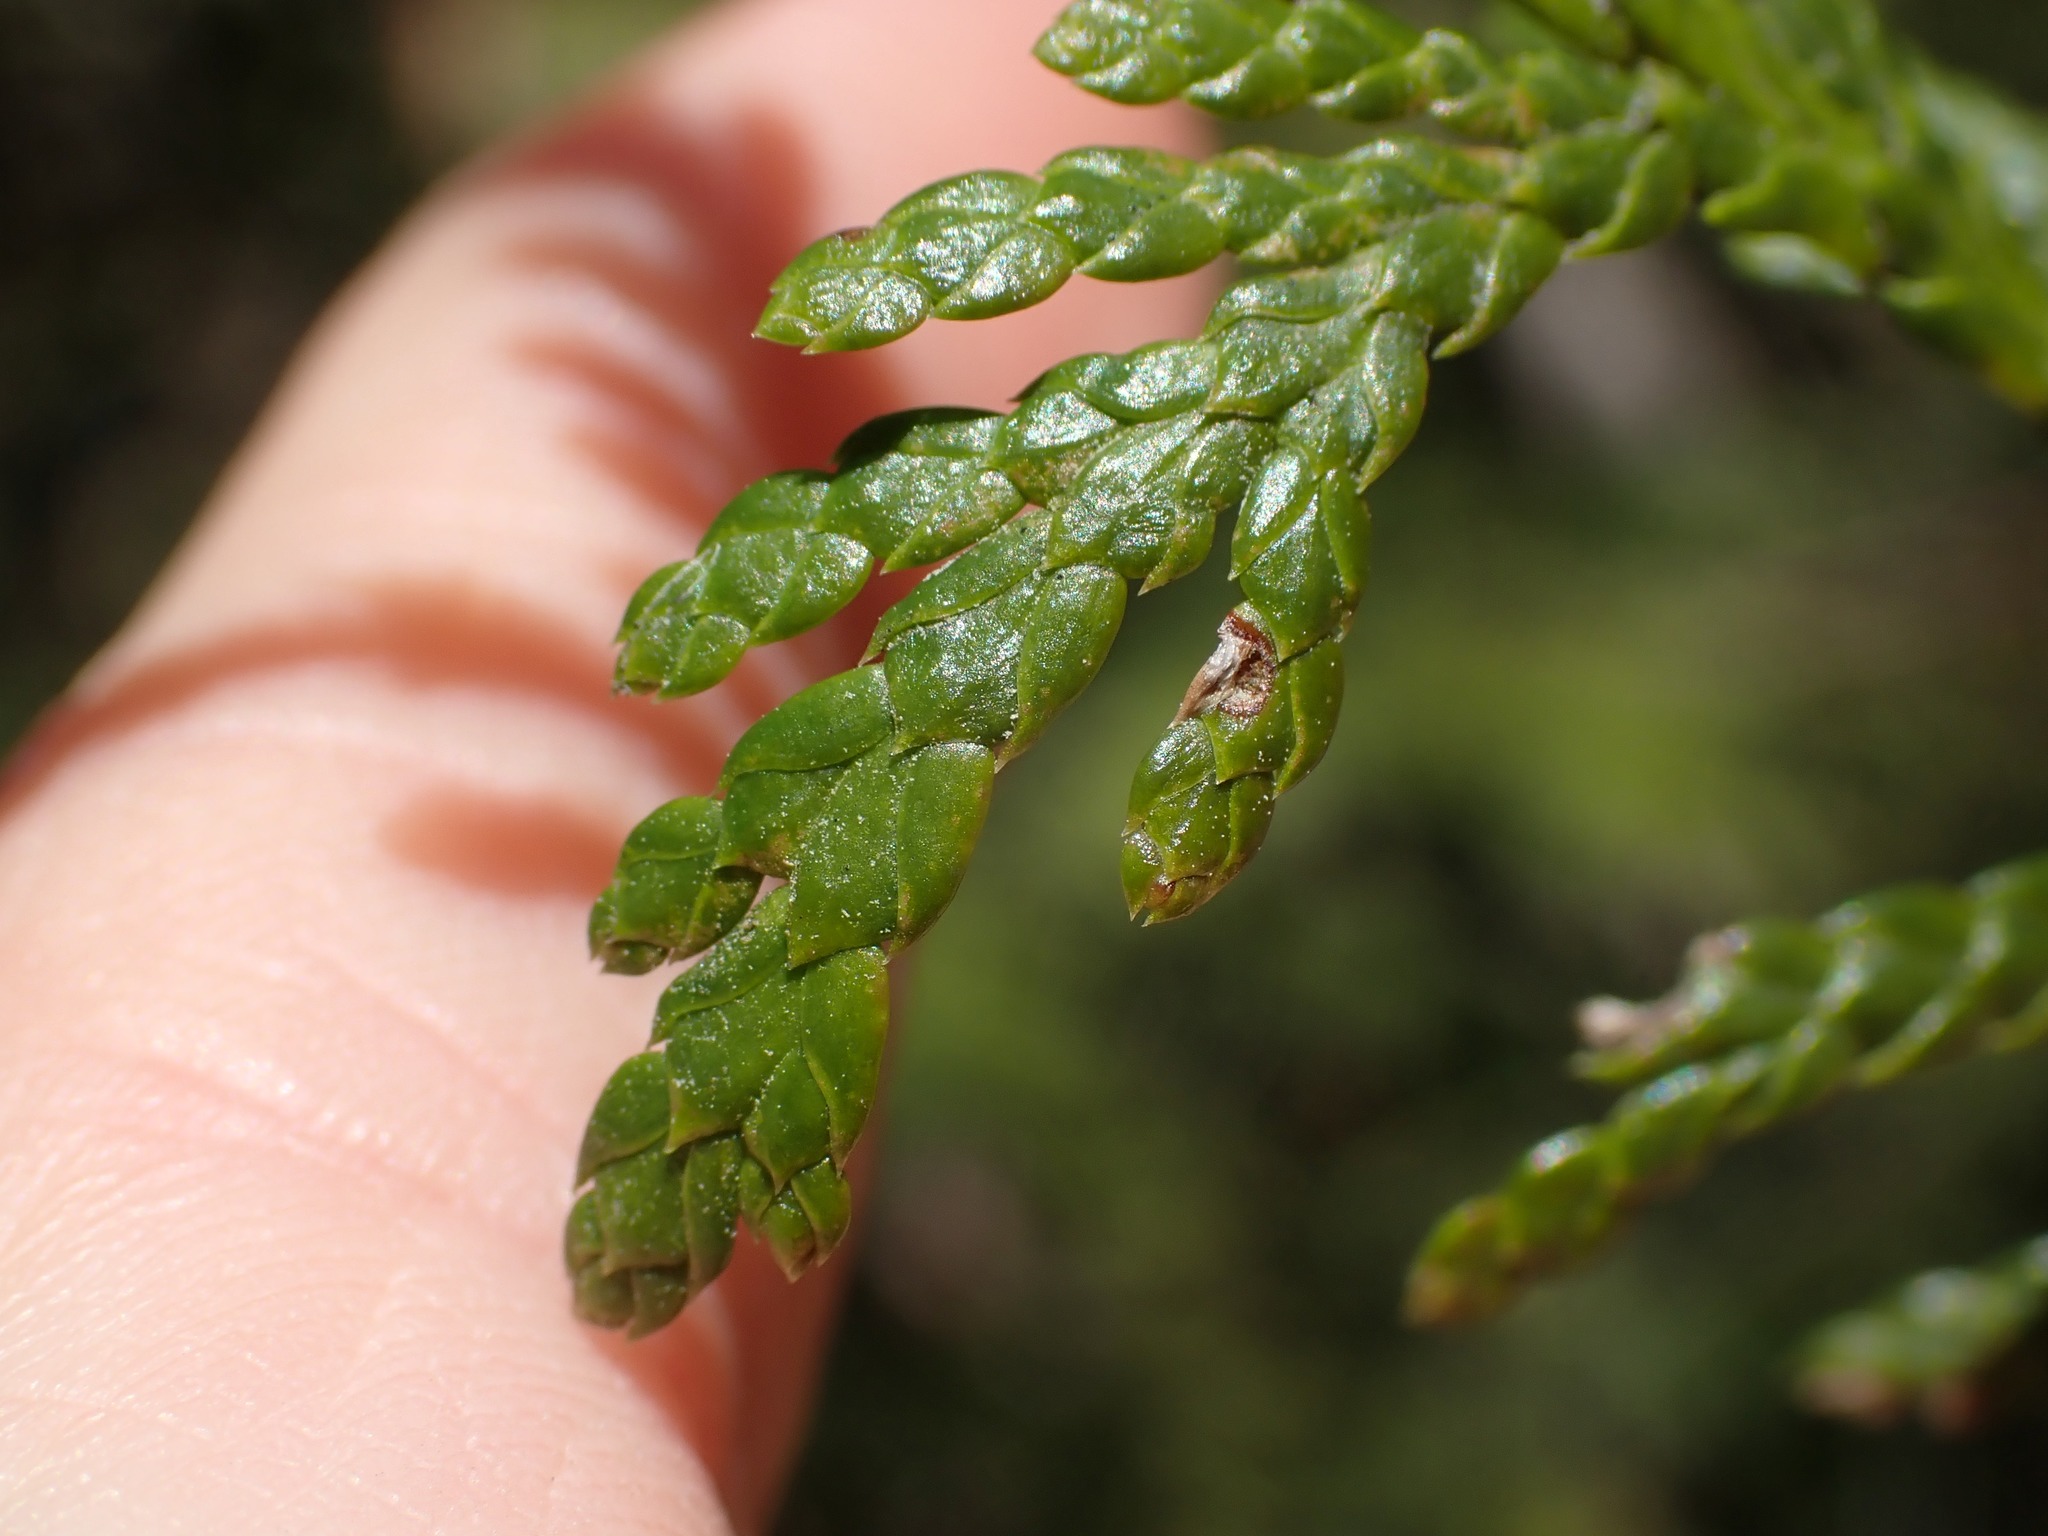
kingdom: Plantae
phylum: Tracheophyta
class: Pinopsida
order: Pinales
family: Cupressaceae
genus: Thuja
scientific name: Thuja plicata
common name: Western red-cedar
